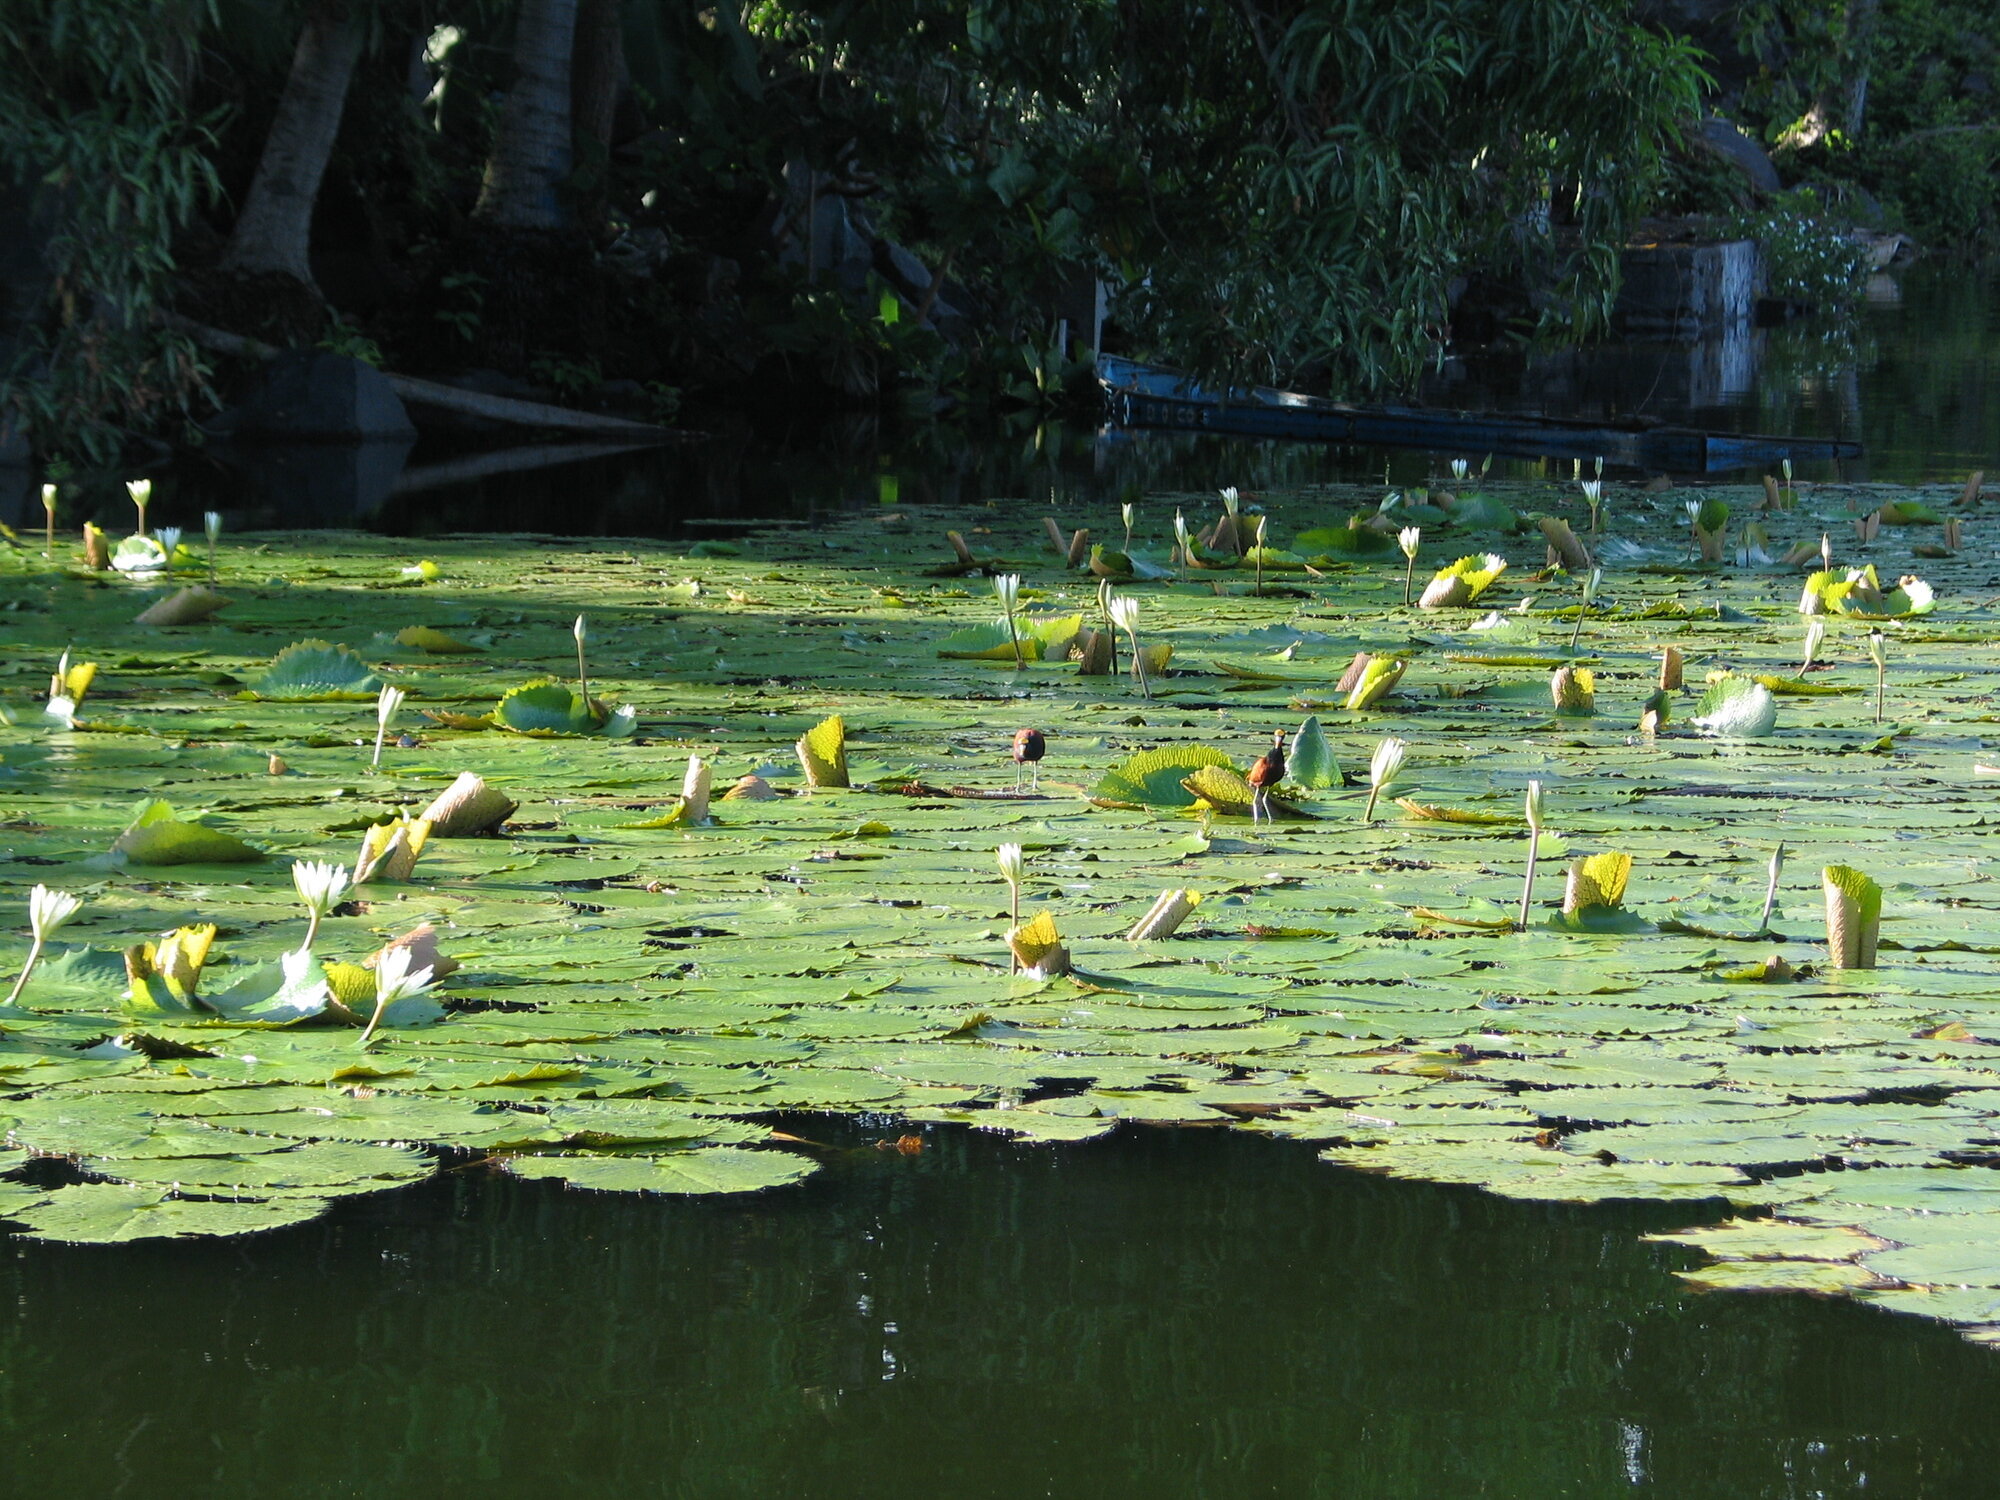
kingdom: Animalia
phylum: Chordata
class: Aves
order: Charadriiformes
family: Jacanidae
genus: Jacana
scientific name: Jacana spinosa
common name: Northern jacana
